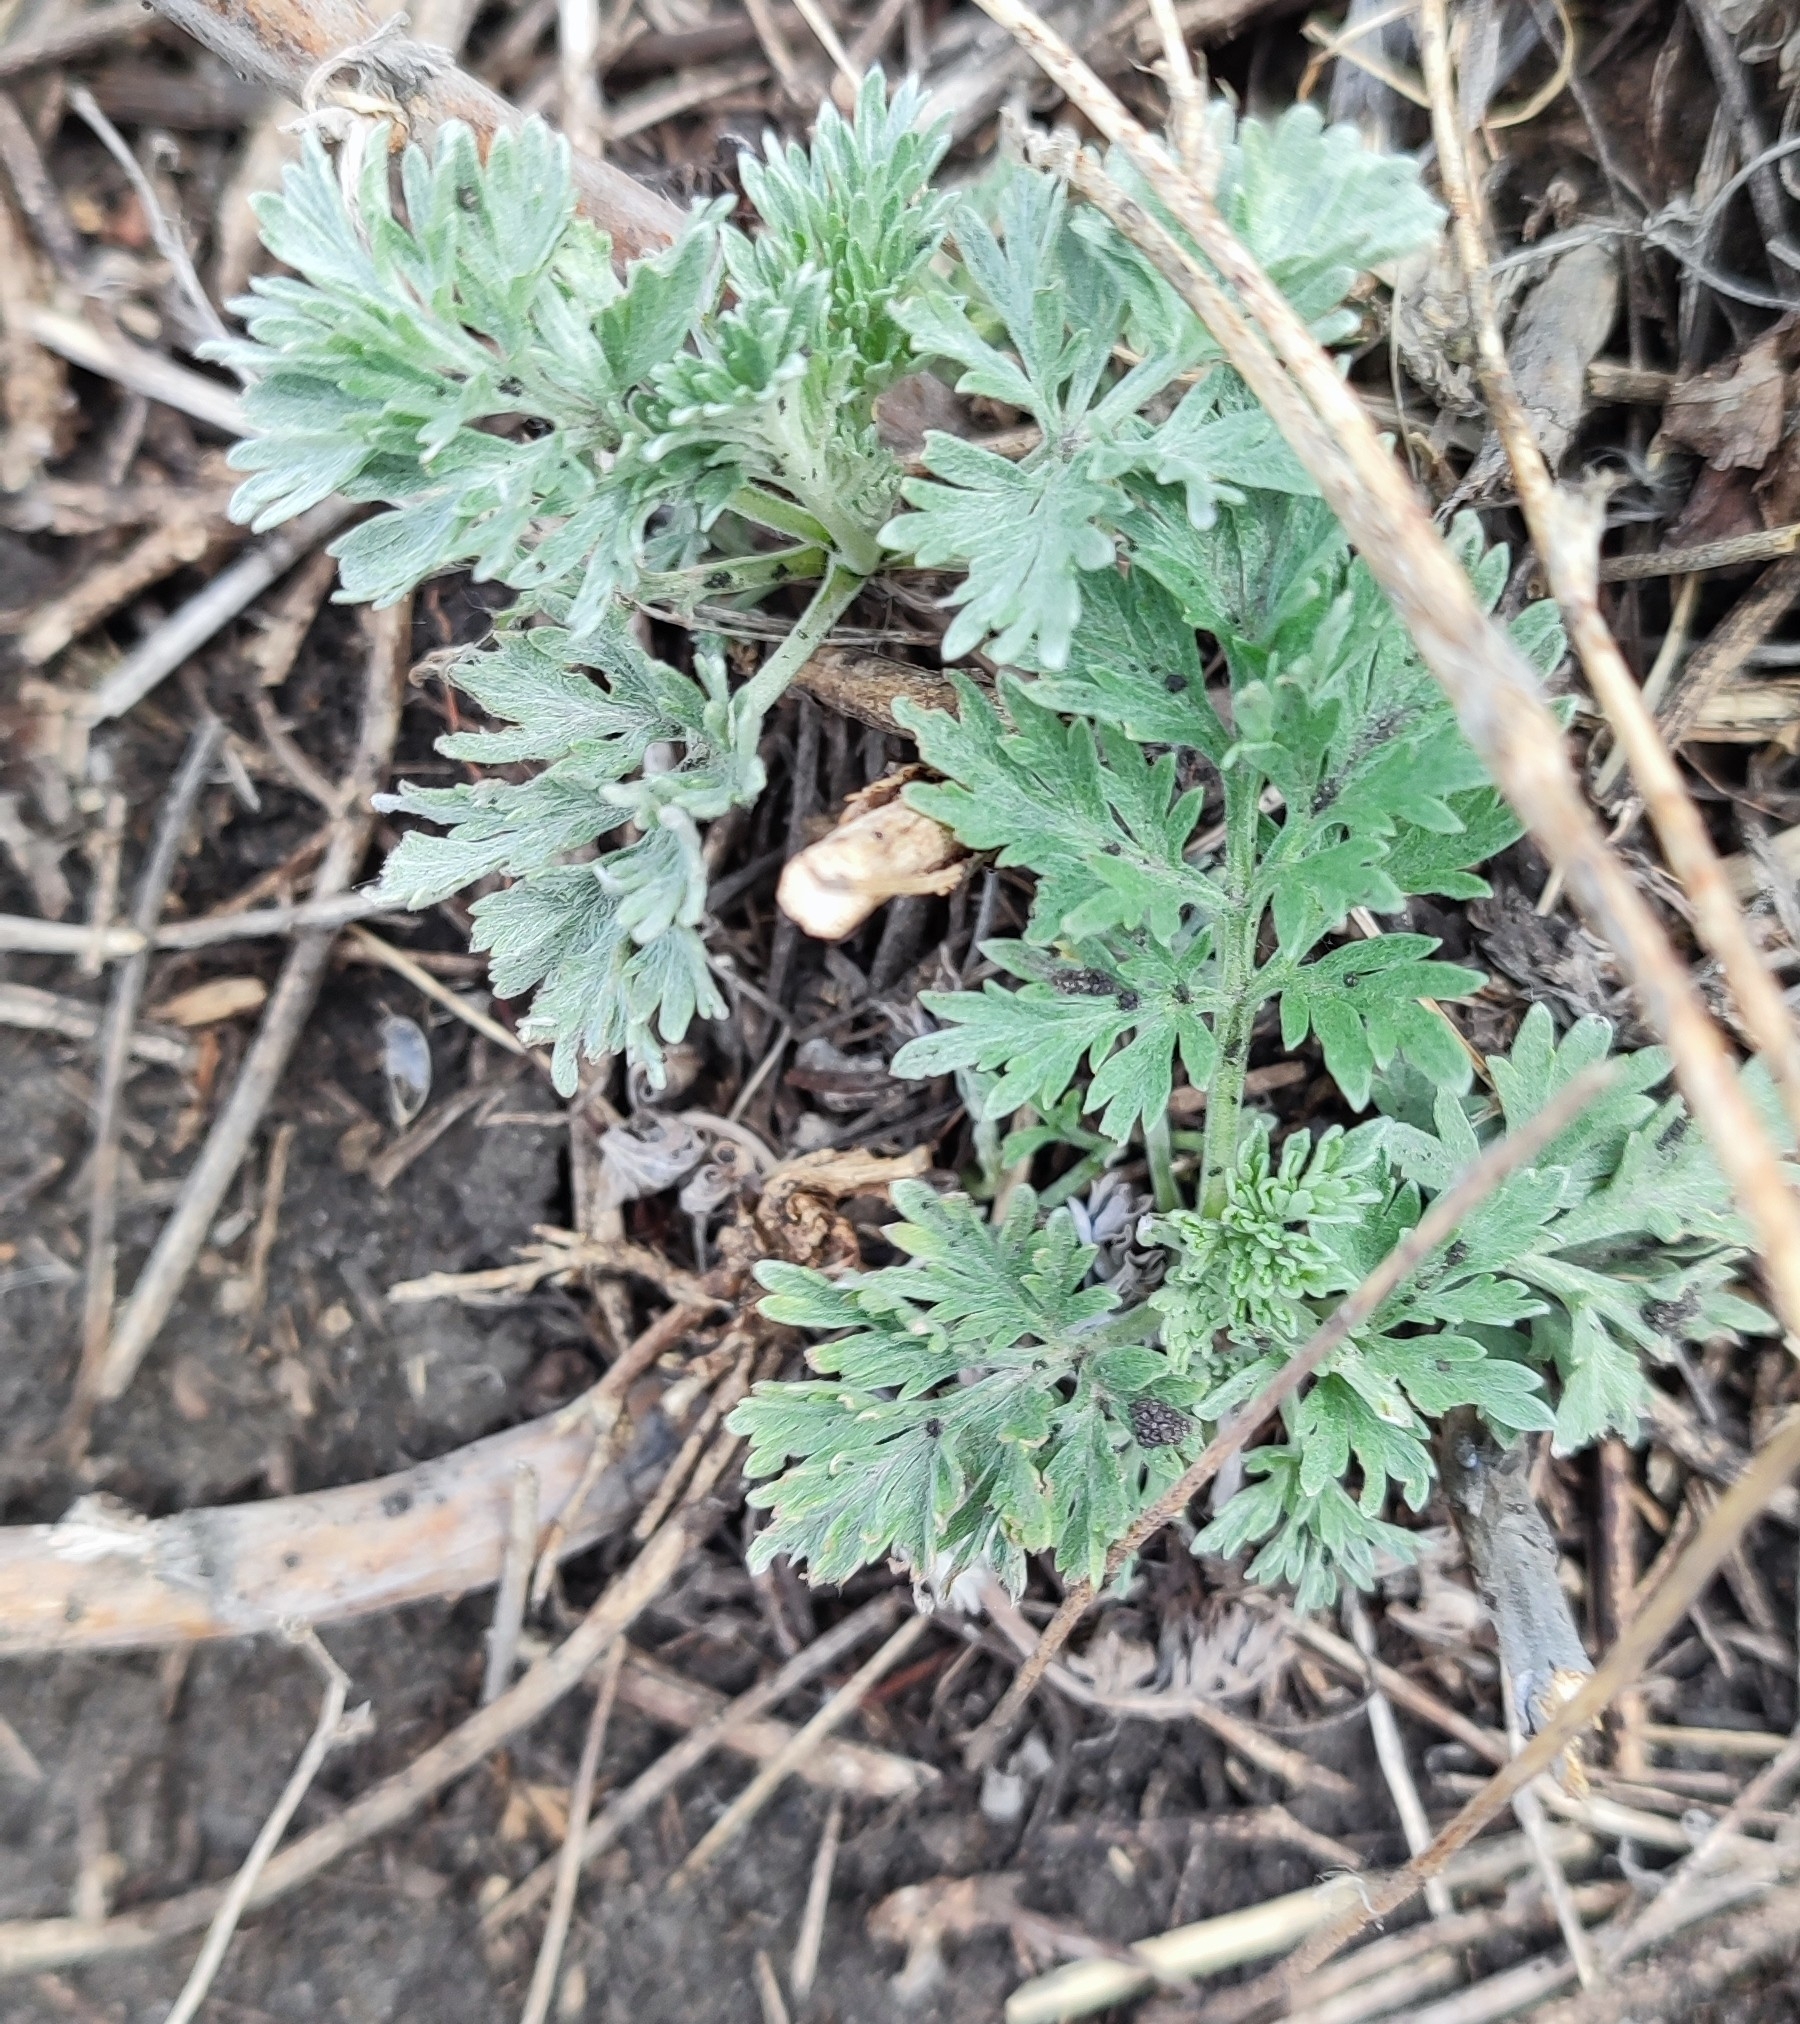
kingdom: Plantae
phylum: Tracheophyta
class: Magnoliopsida
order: Asterales
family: Asteraceae
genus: Artemisia
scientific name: Artemisia absinthium
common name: Wormwood
